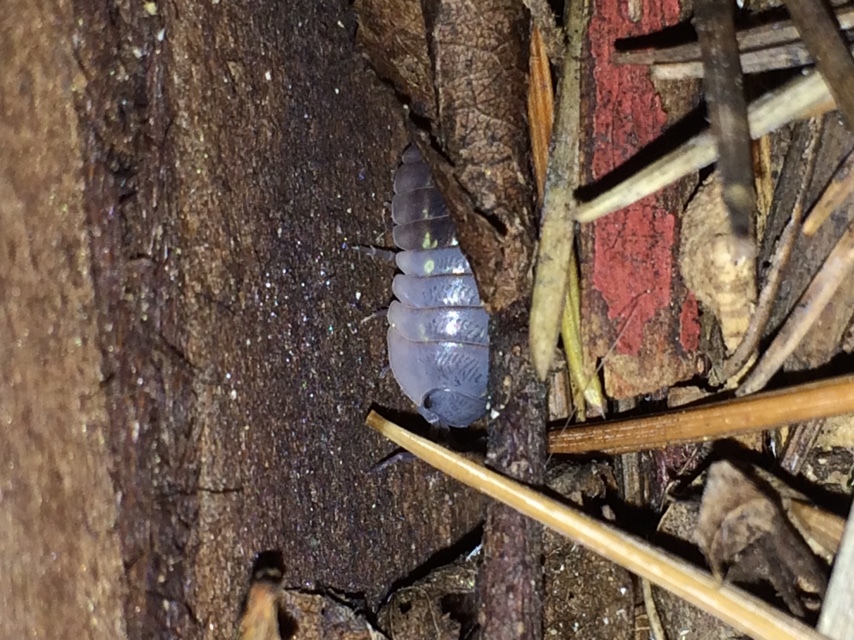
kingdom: Animalia
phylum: Arthropoda
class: Malacostraca
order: Isopoda
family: Armadillidiidae
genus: Armadillidium
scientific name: Armadillidium vulgare
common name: Common pill woodlouse
